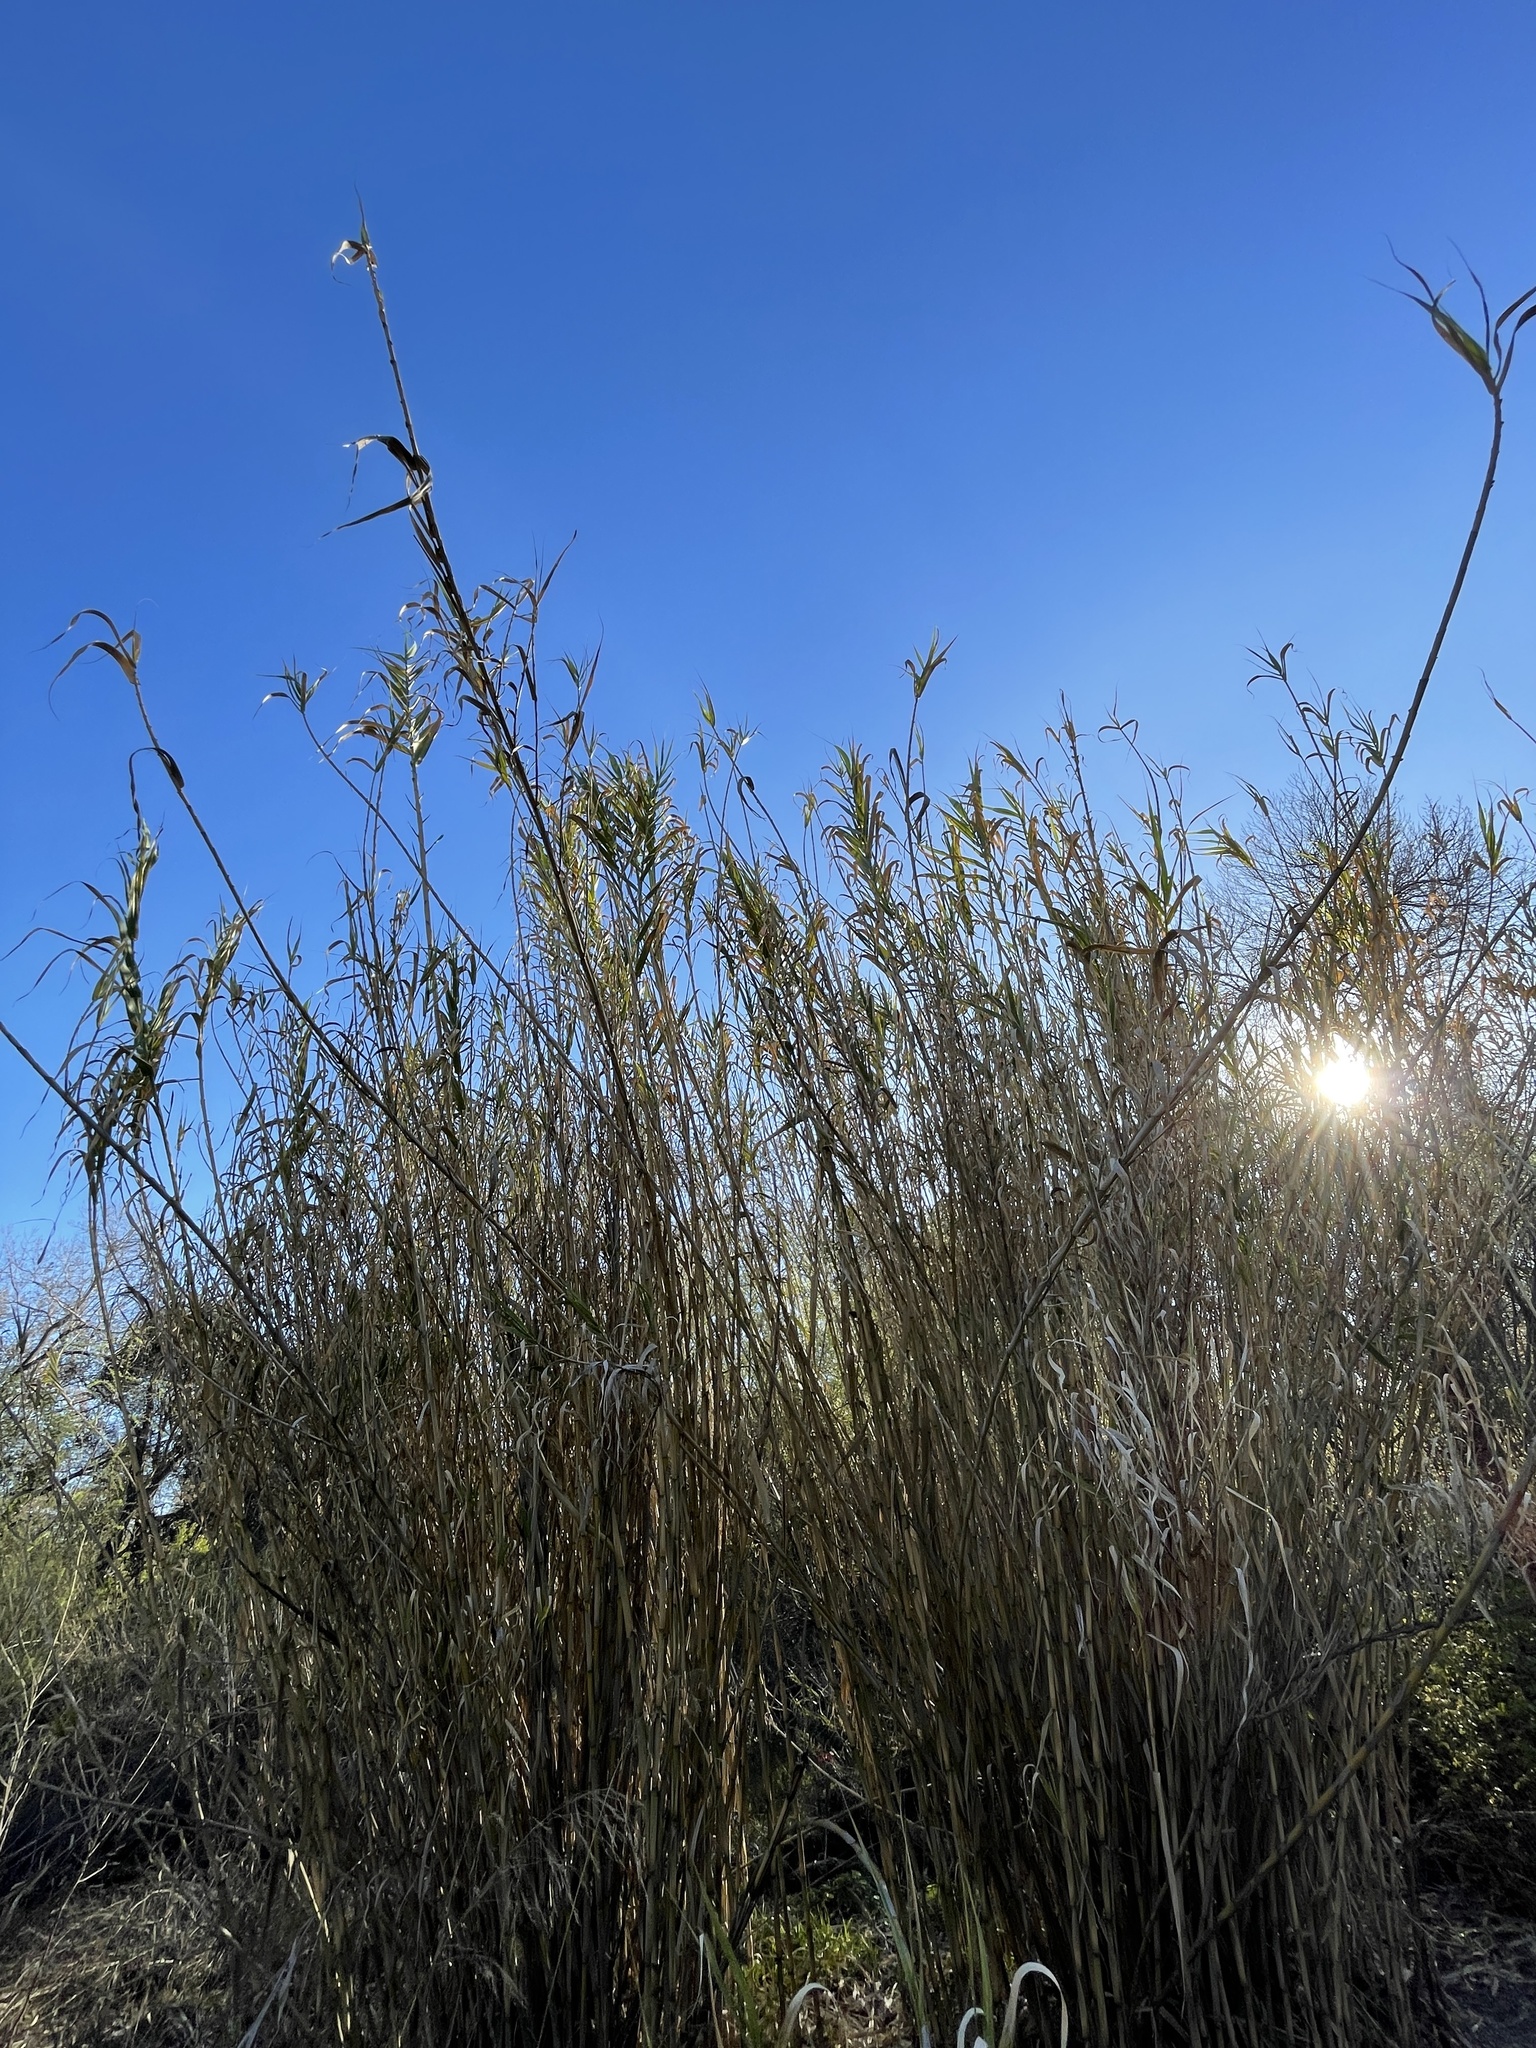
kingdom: Plantae
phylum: Tracheophyta
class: Liliopsida
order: Poales
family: Poaceae
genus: Arundo
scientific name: Arundo donax
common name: Giant reed
